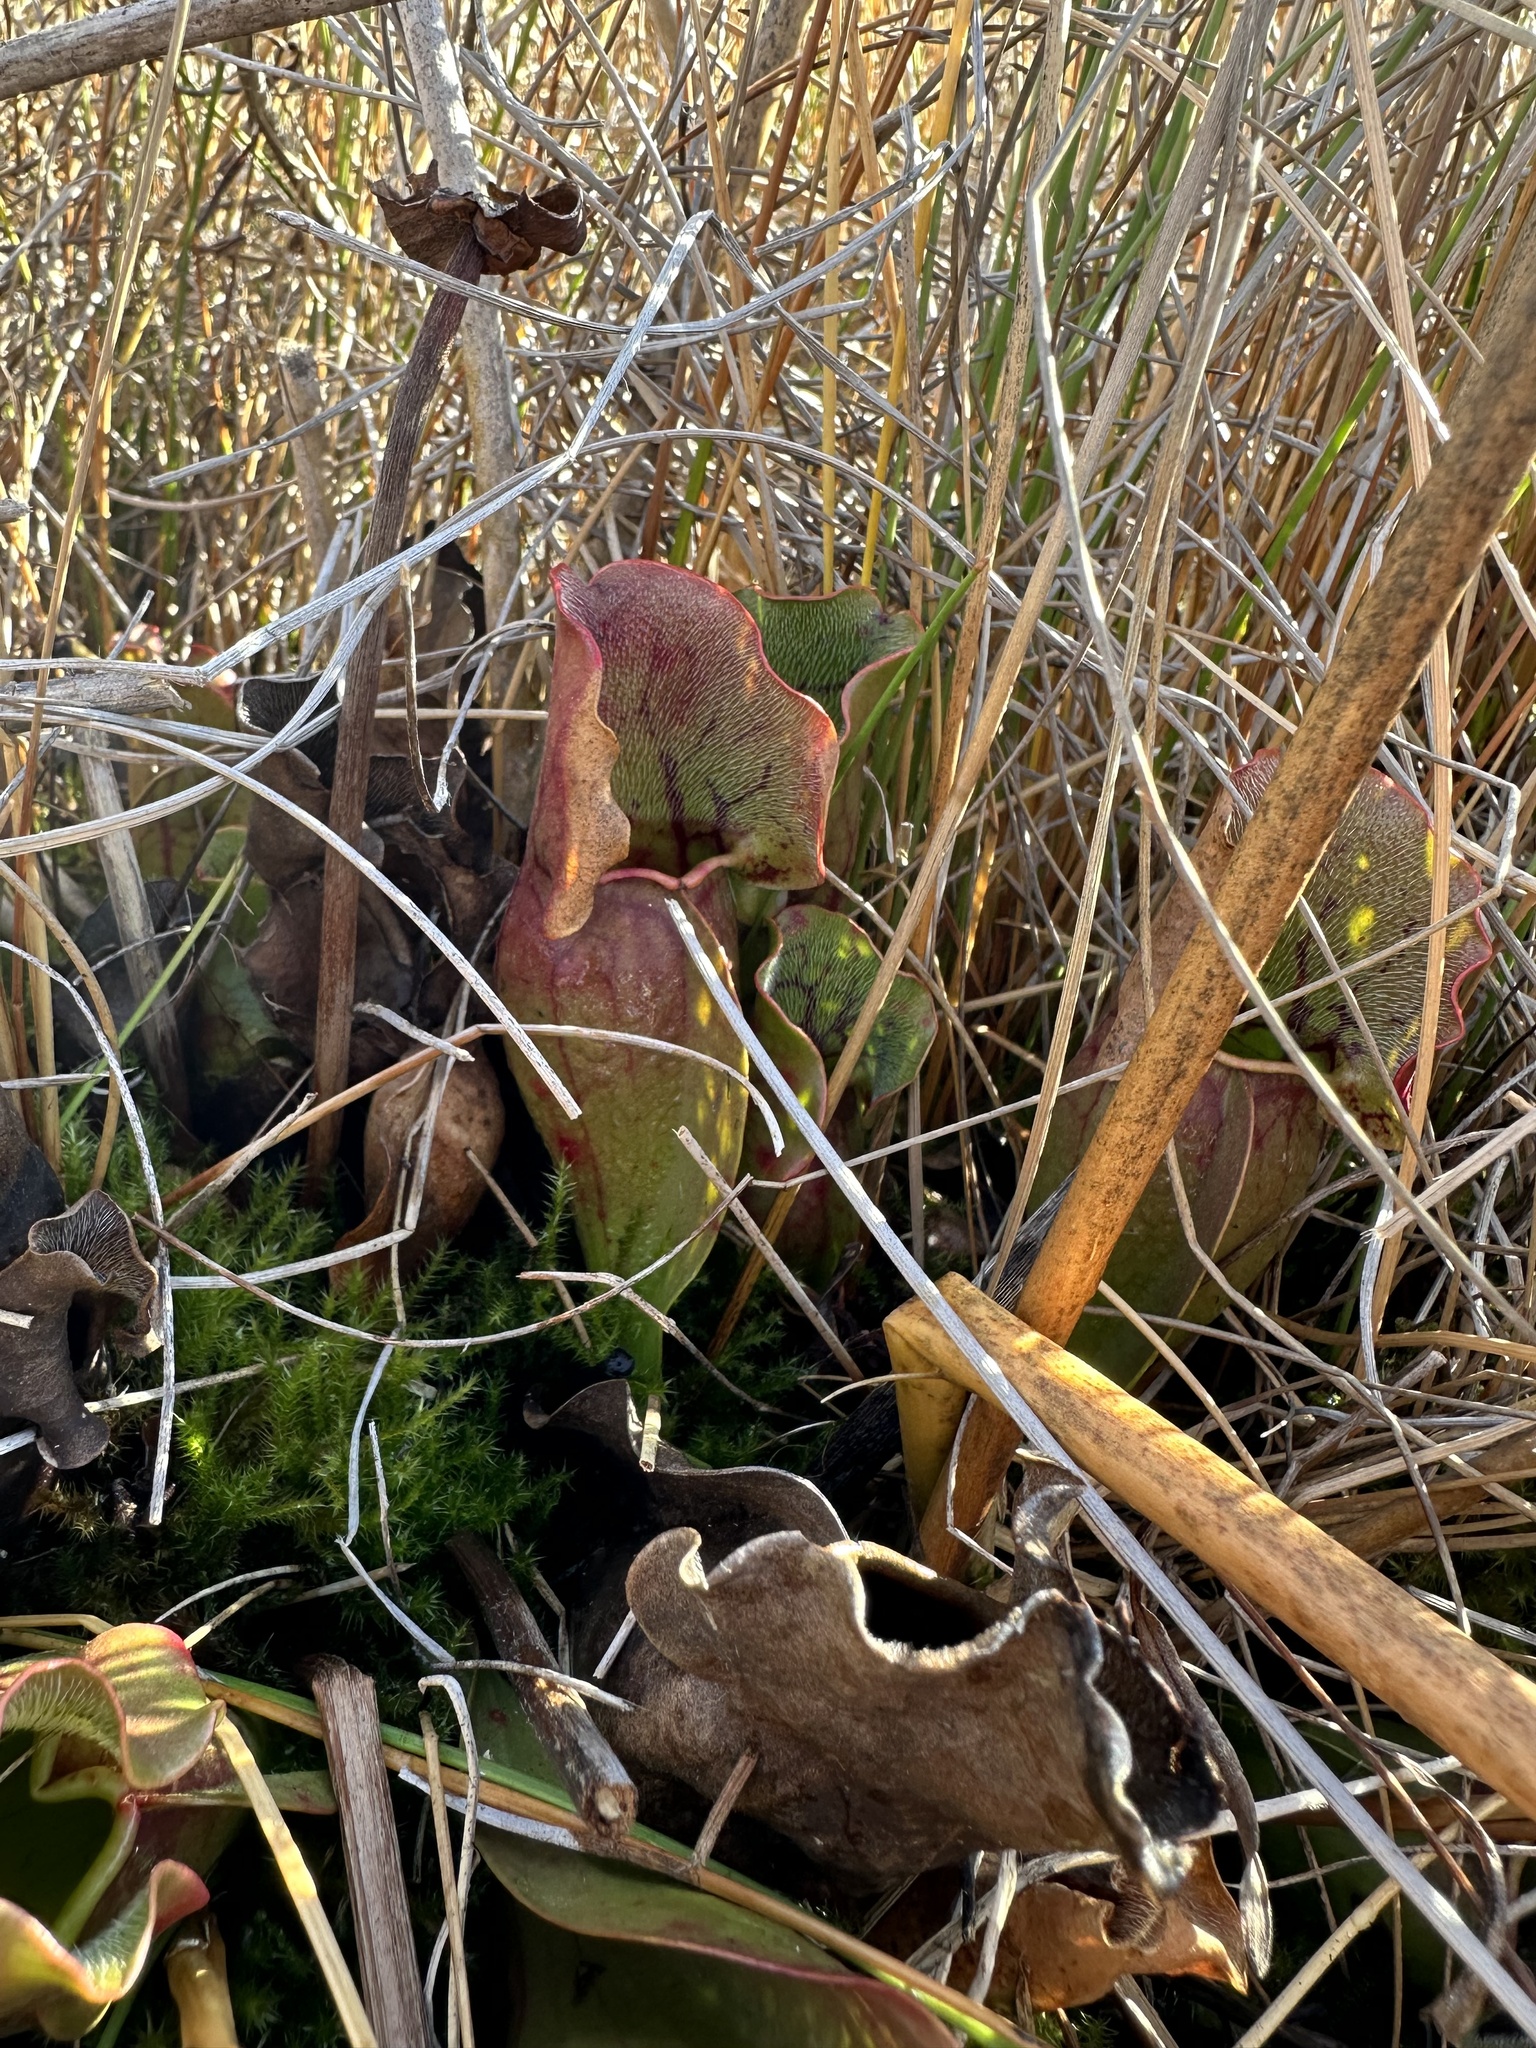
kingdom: Plantae
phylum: Tracheophyta
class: Magnoliopsida
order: Ericales
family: Sarraceniaceae
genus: Sarracenia
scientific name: Sarracenia purpurea
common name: Pitcherplant
